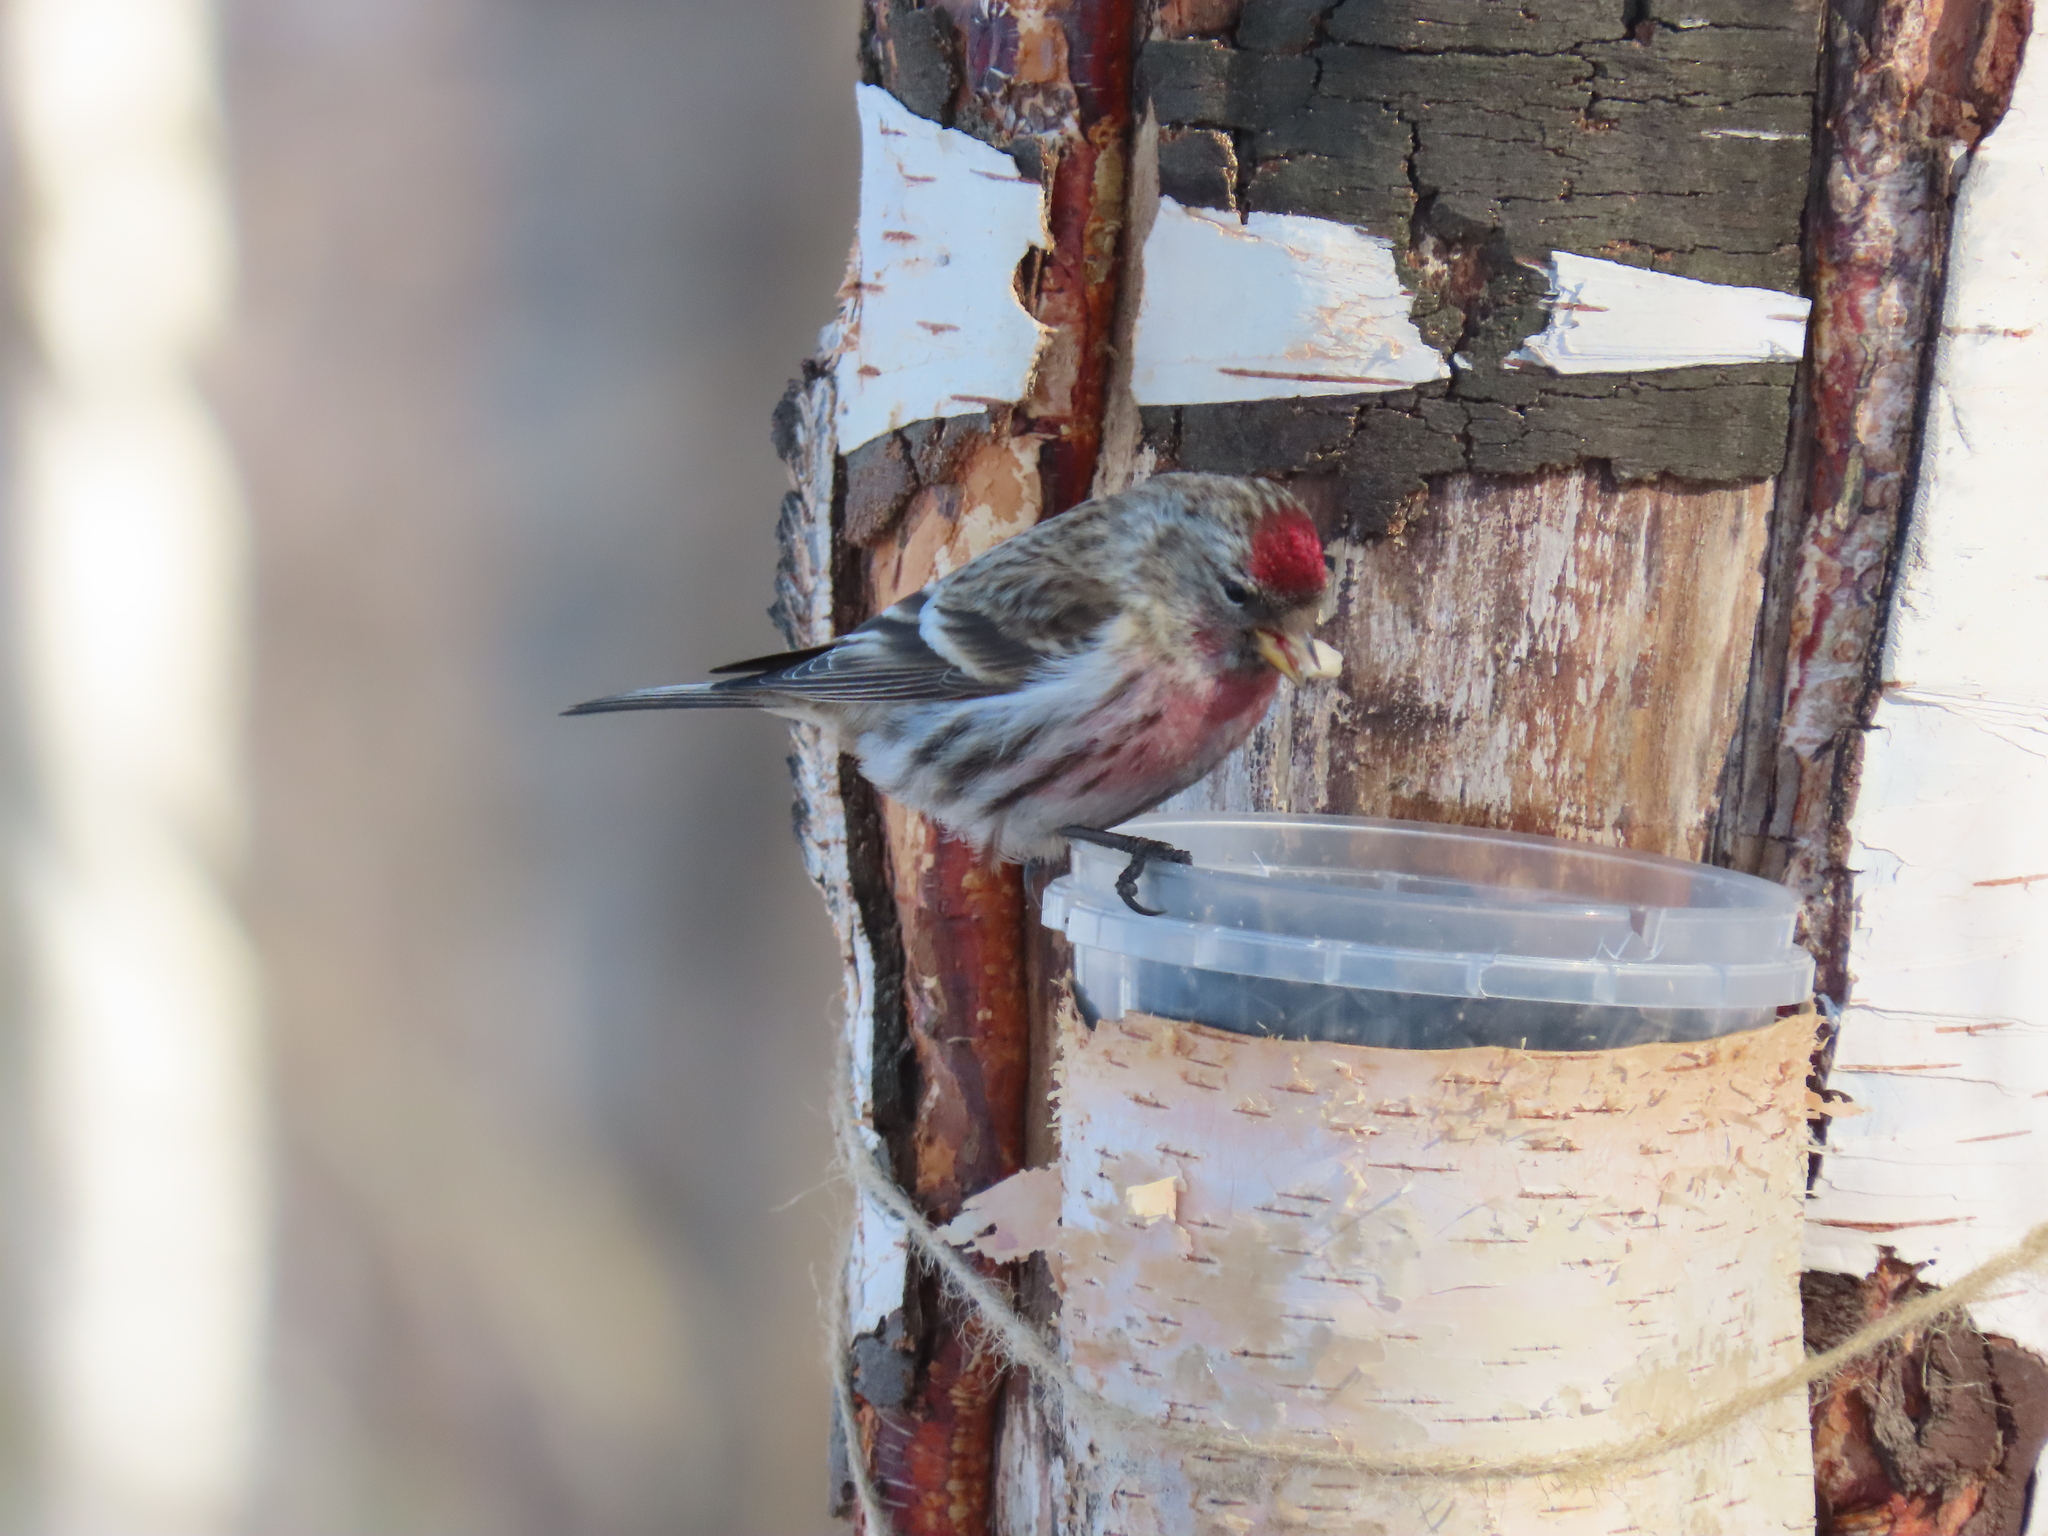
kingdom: Animalia
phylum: Chordata
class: Aves
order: Passeriformes
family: Fringillidae
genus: Acanthis
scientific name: Acanthis flammea
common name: Common redpoll
